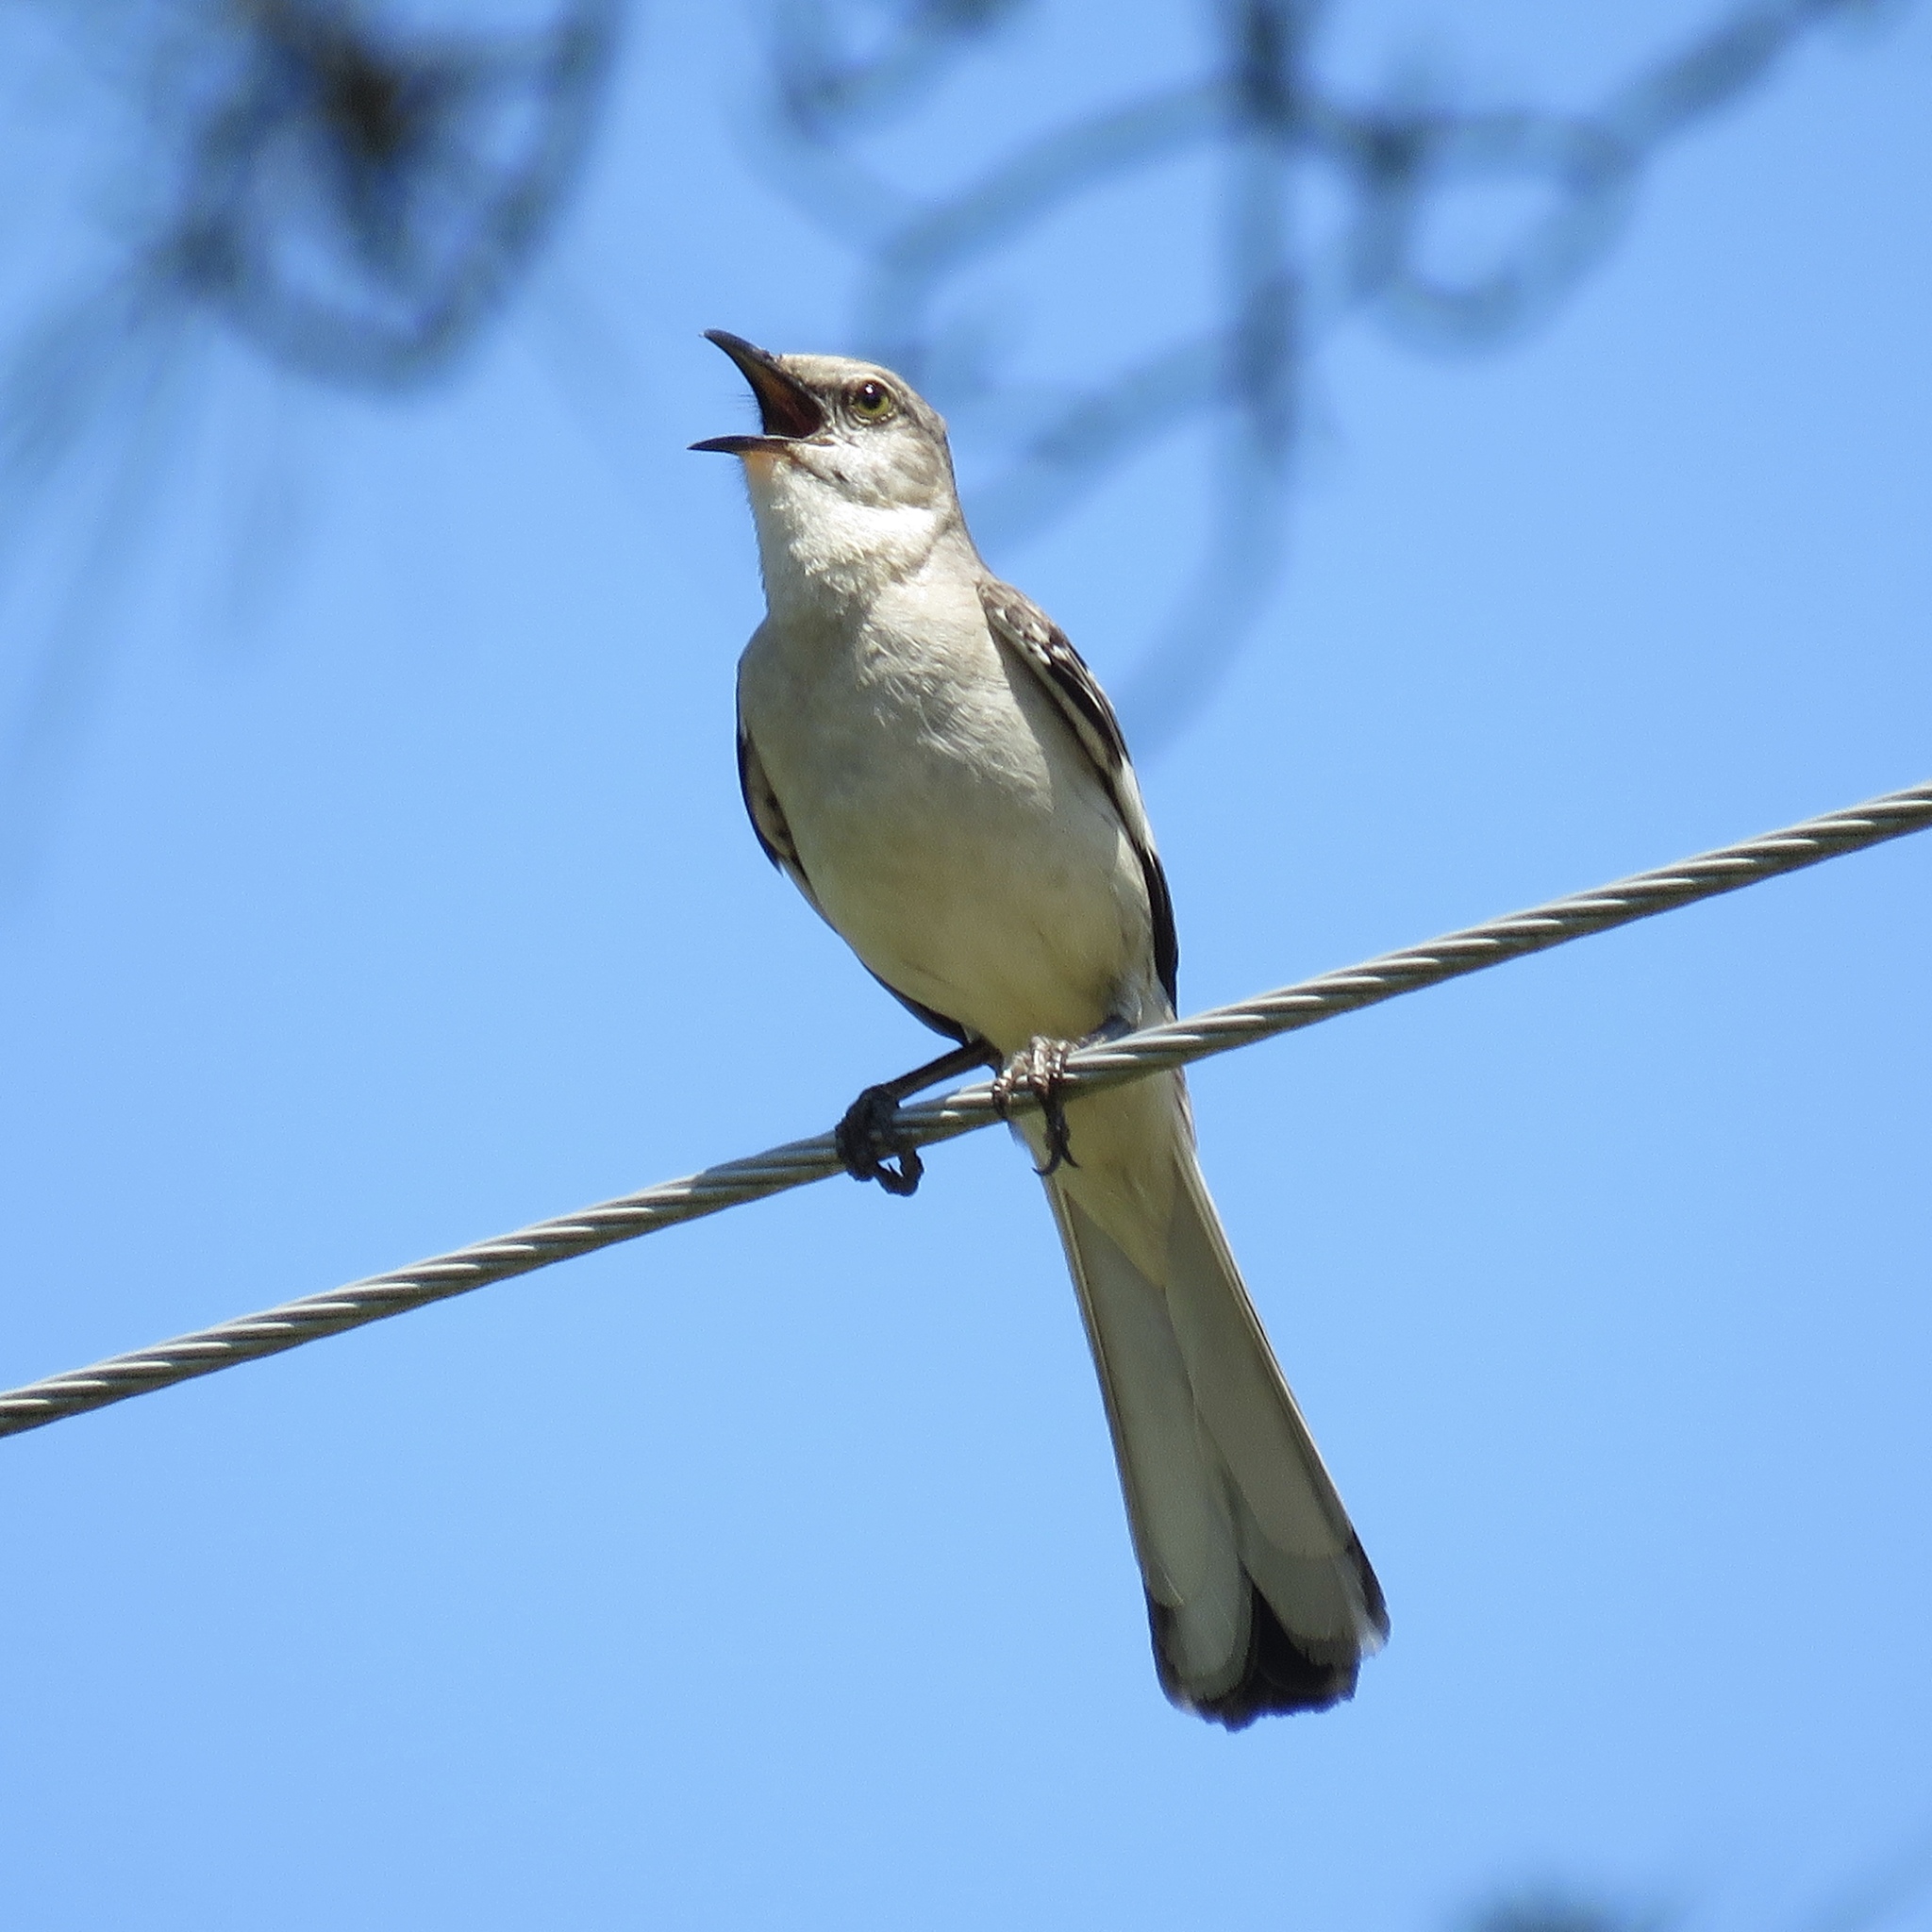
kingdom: Animalia
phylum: Chordata
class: Aves
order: Passeriformes
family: Mimidae
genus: Mimus
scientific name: Mimus polyglottos
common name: Northern mockingbird
